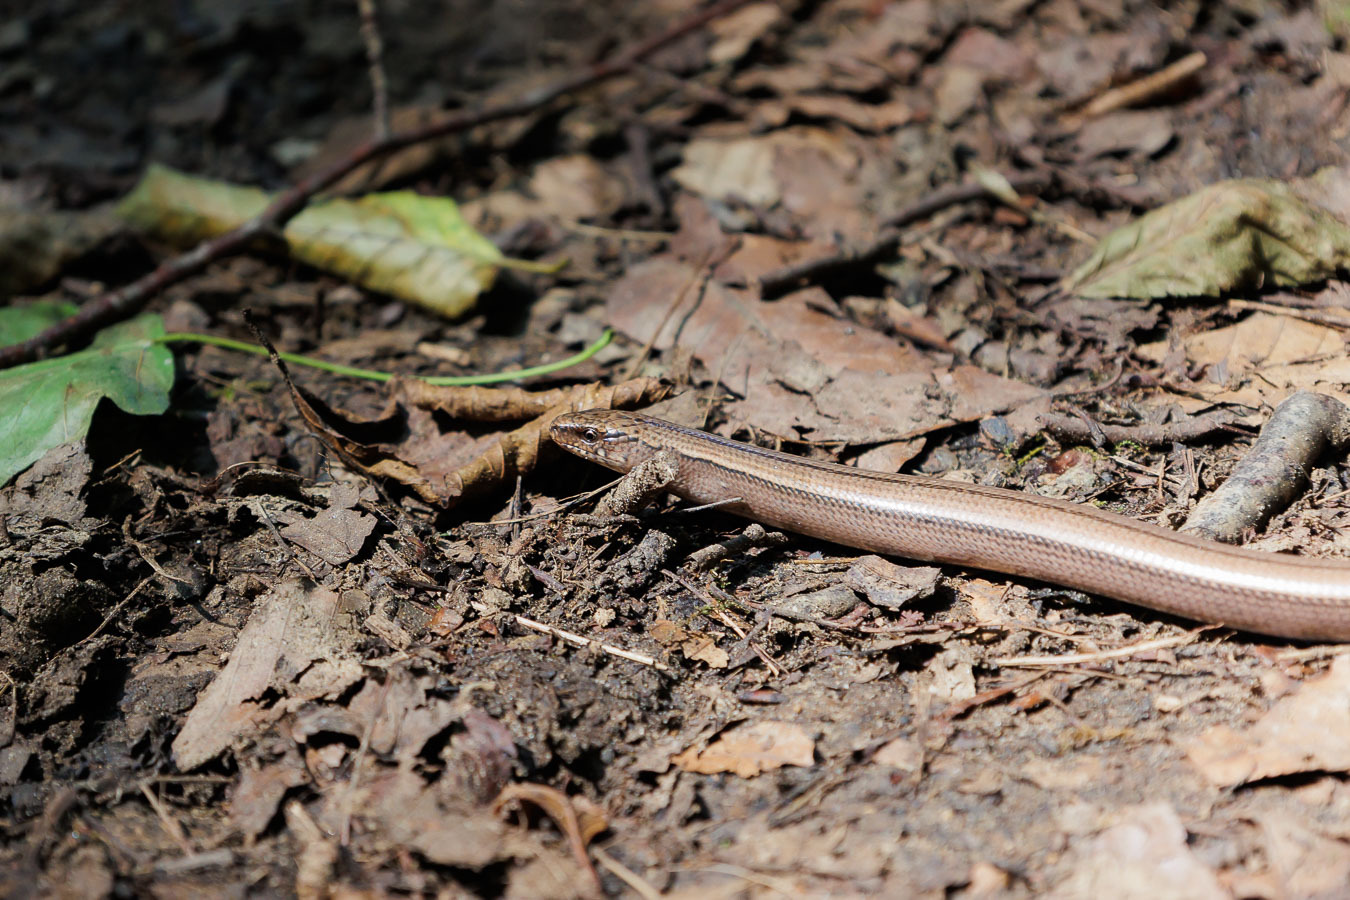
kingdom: Animalia
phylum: Chordata
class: Squamata
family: Anguidae
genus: Anguis
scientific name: Anguis colchica
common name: Slow worm
